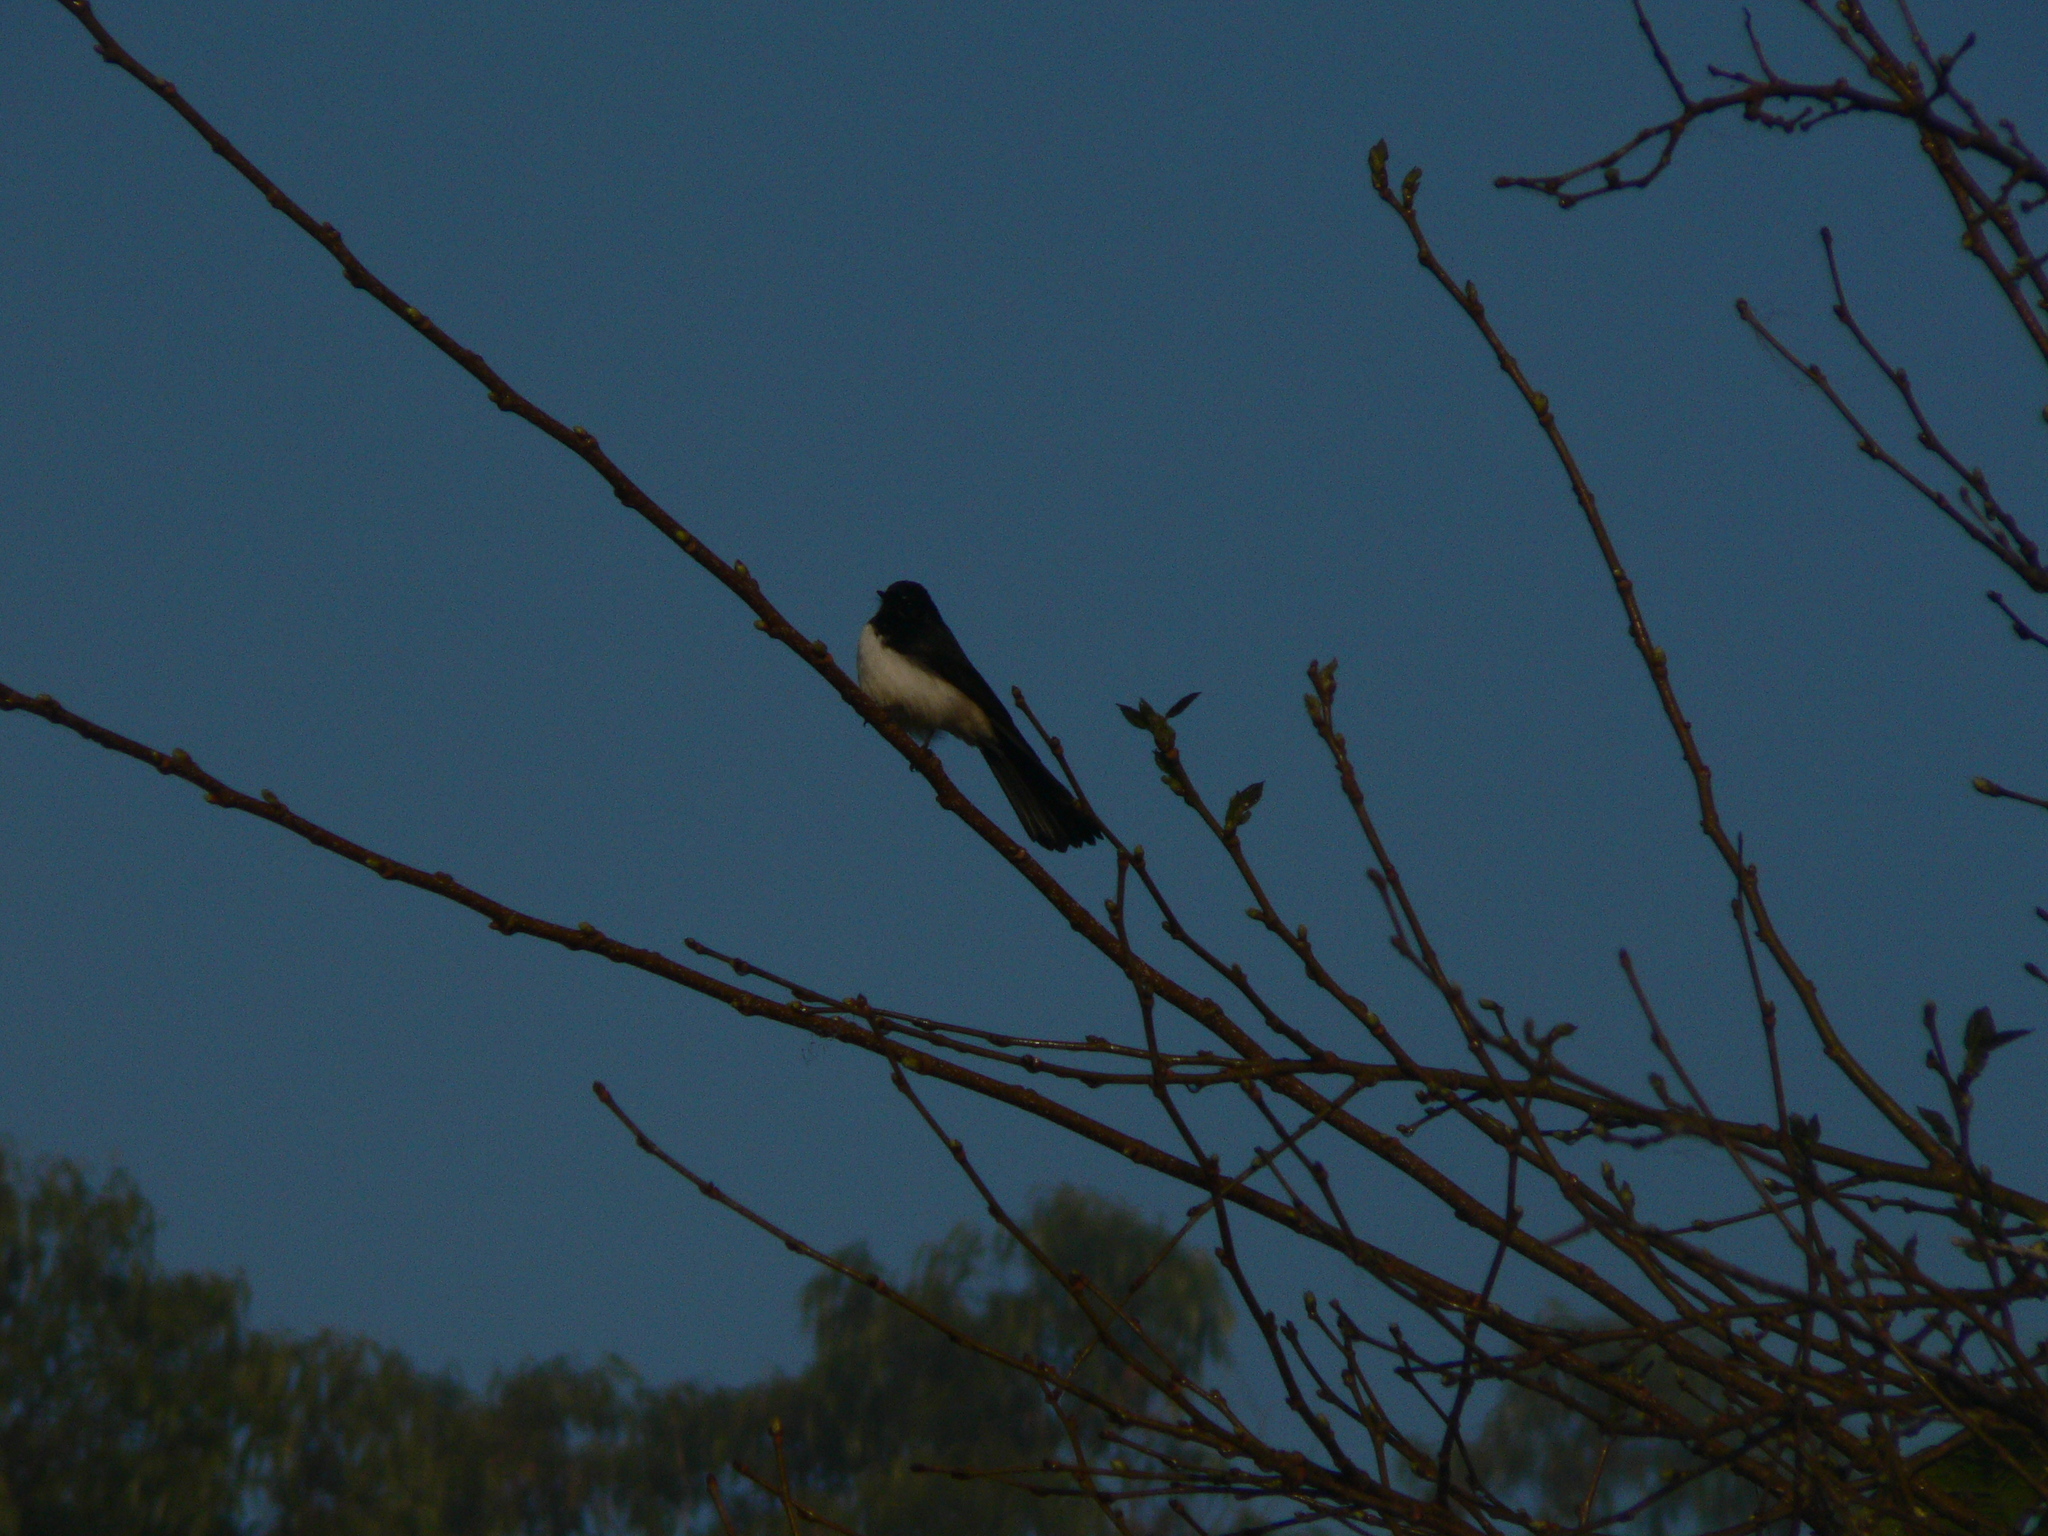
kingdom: Animalia
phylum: Chordata
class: Aves
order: Passeriformes
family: Rhipiduridae
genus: Rhipidura
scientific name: Rhipidura leucophrys
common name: Willie wagtail
